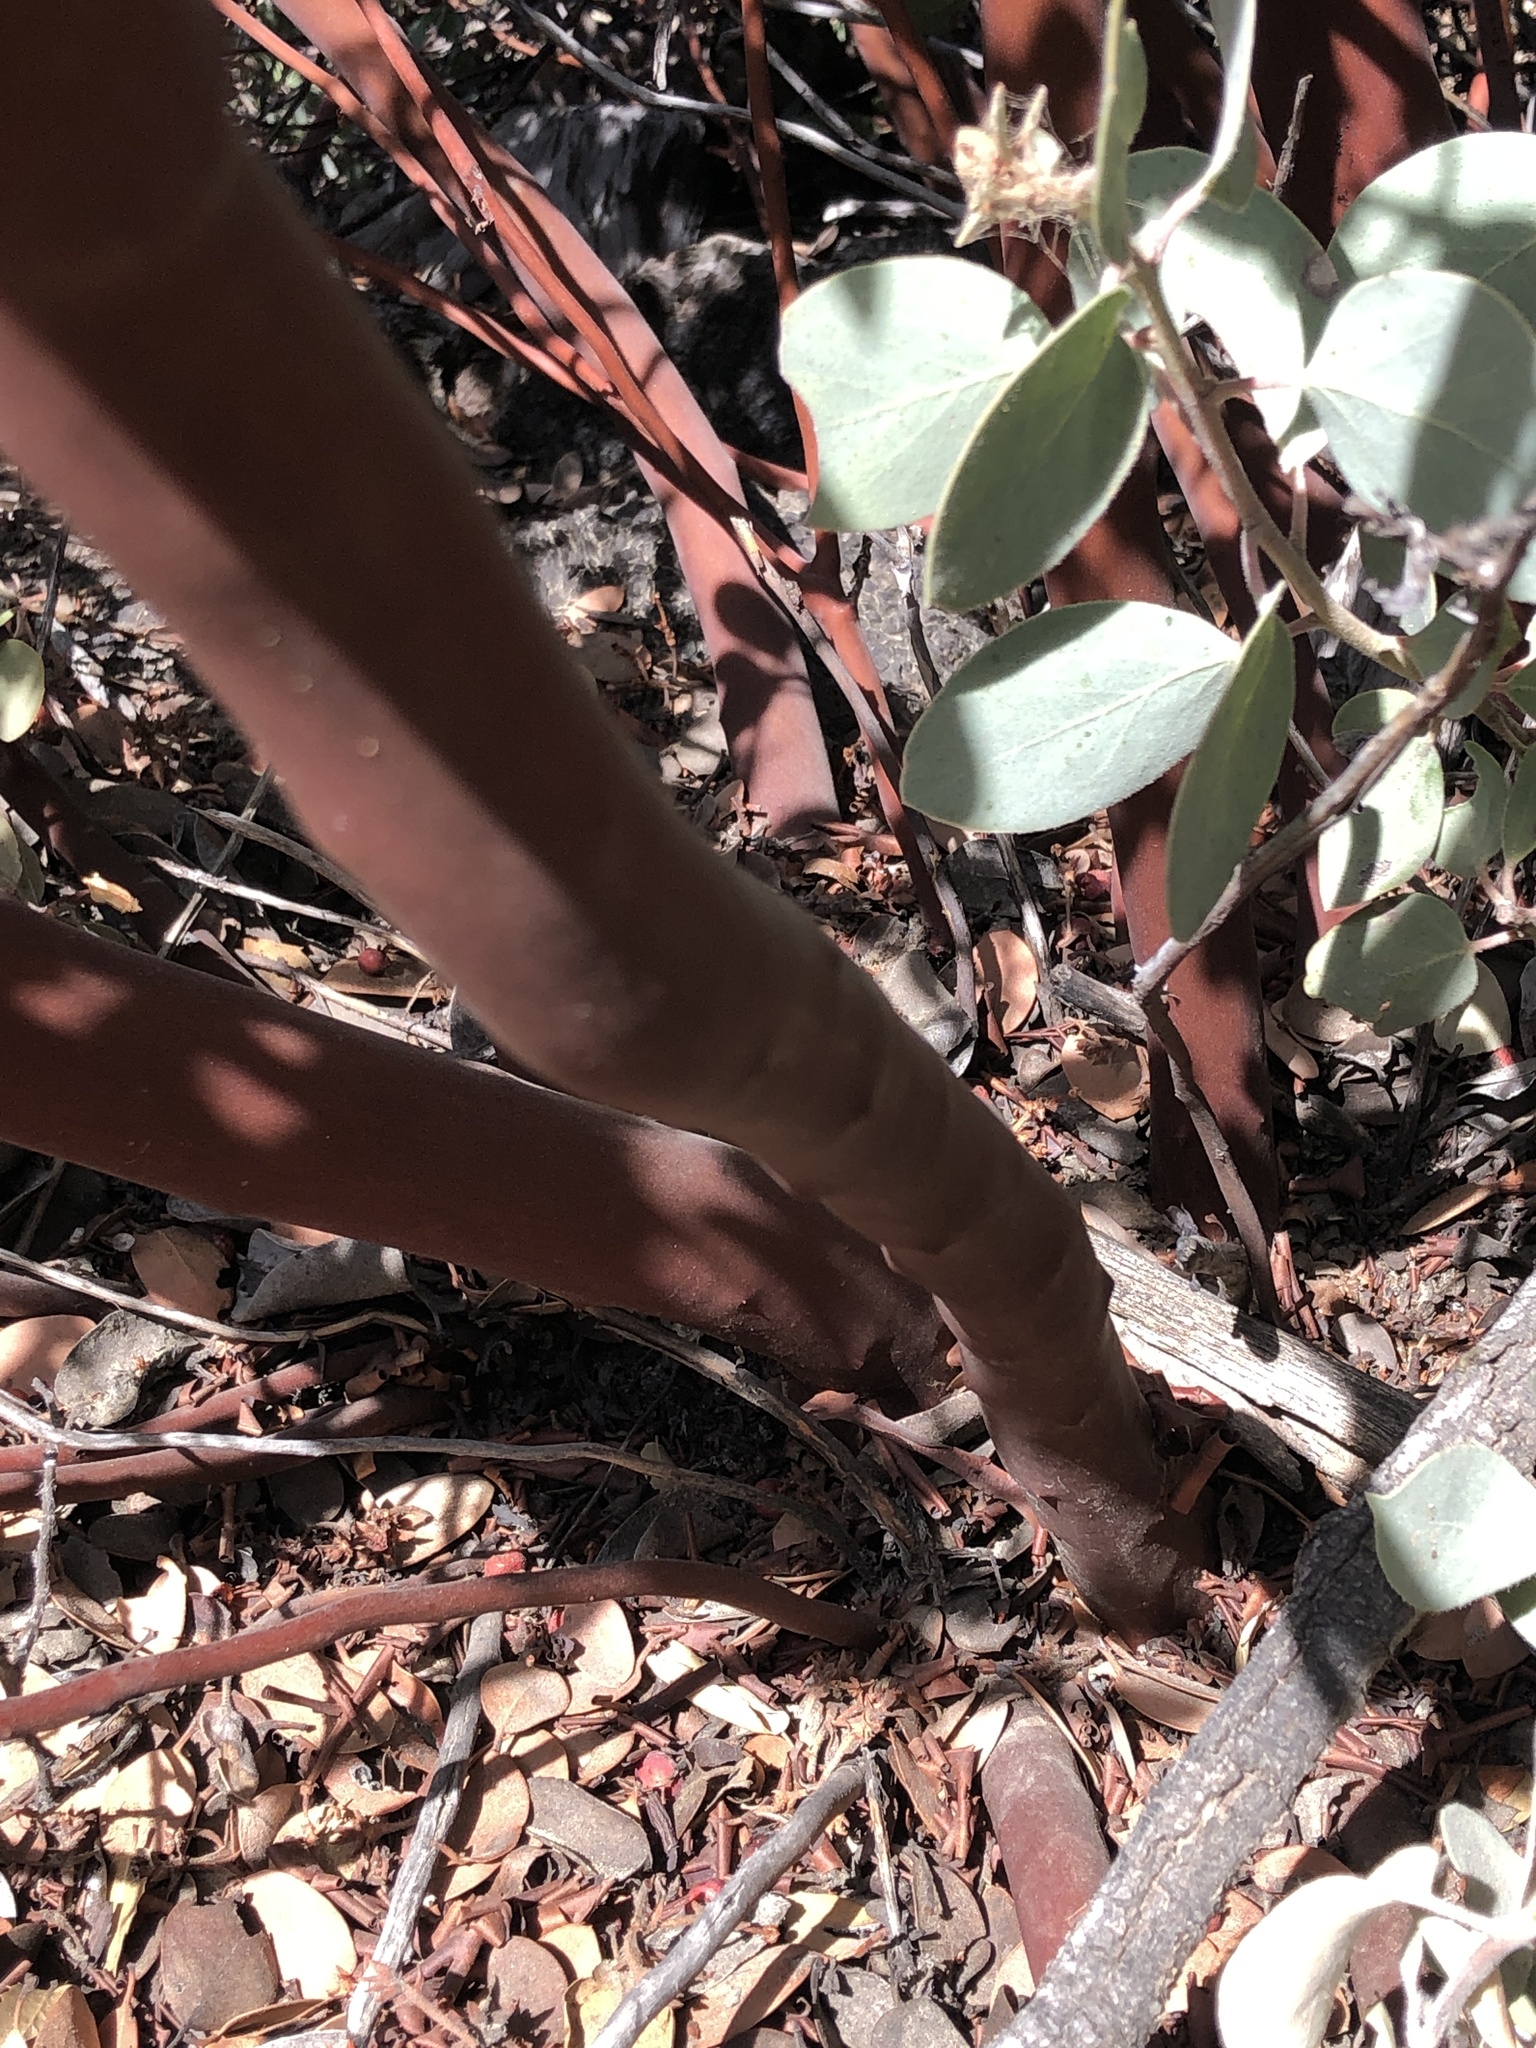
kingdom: Plantae
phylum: Tracheophyta
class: Magnoliopsida
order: Ericales
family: Ericaceae
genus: Arctostaphylos
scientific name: Arctostaphylos glandulosa
